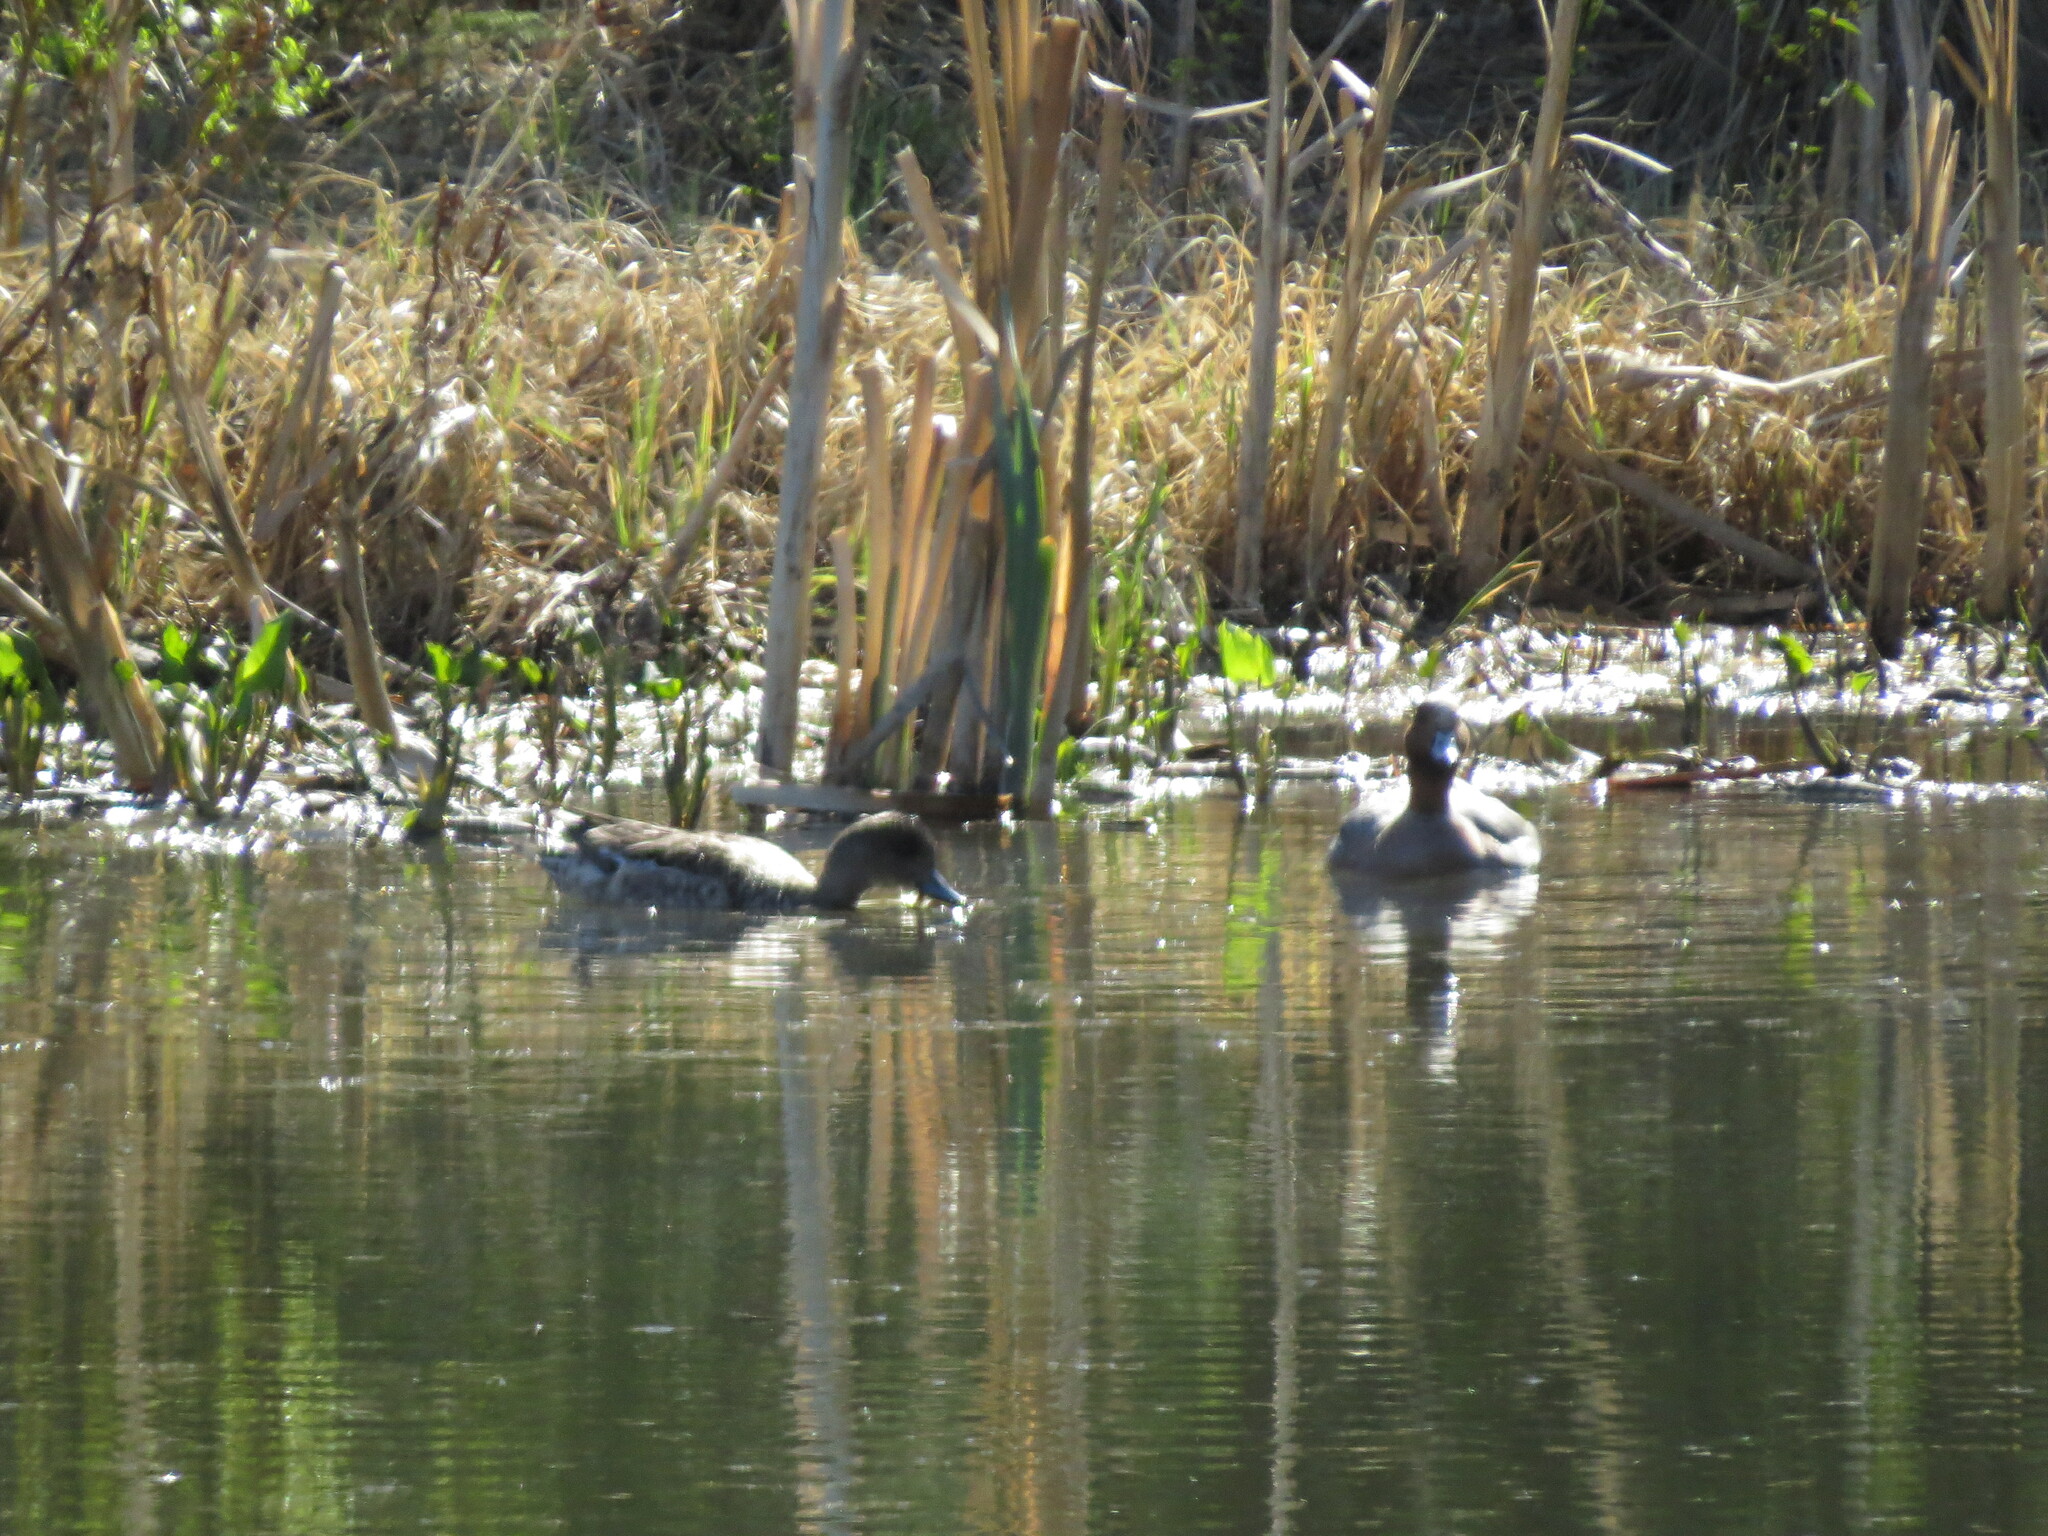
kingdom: Animalia
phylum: Chordata
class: Aves
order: Anseriformes
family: Anatidae
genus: Mareca
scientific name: Mareca penelope
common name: Eurasian wigeon
